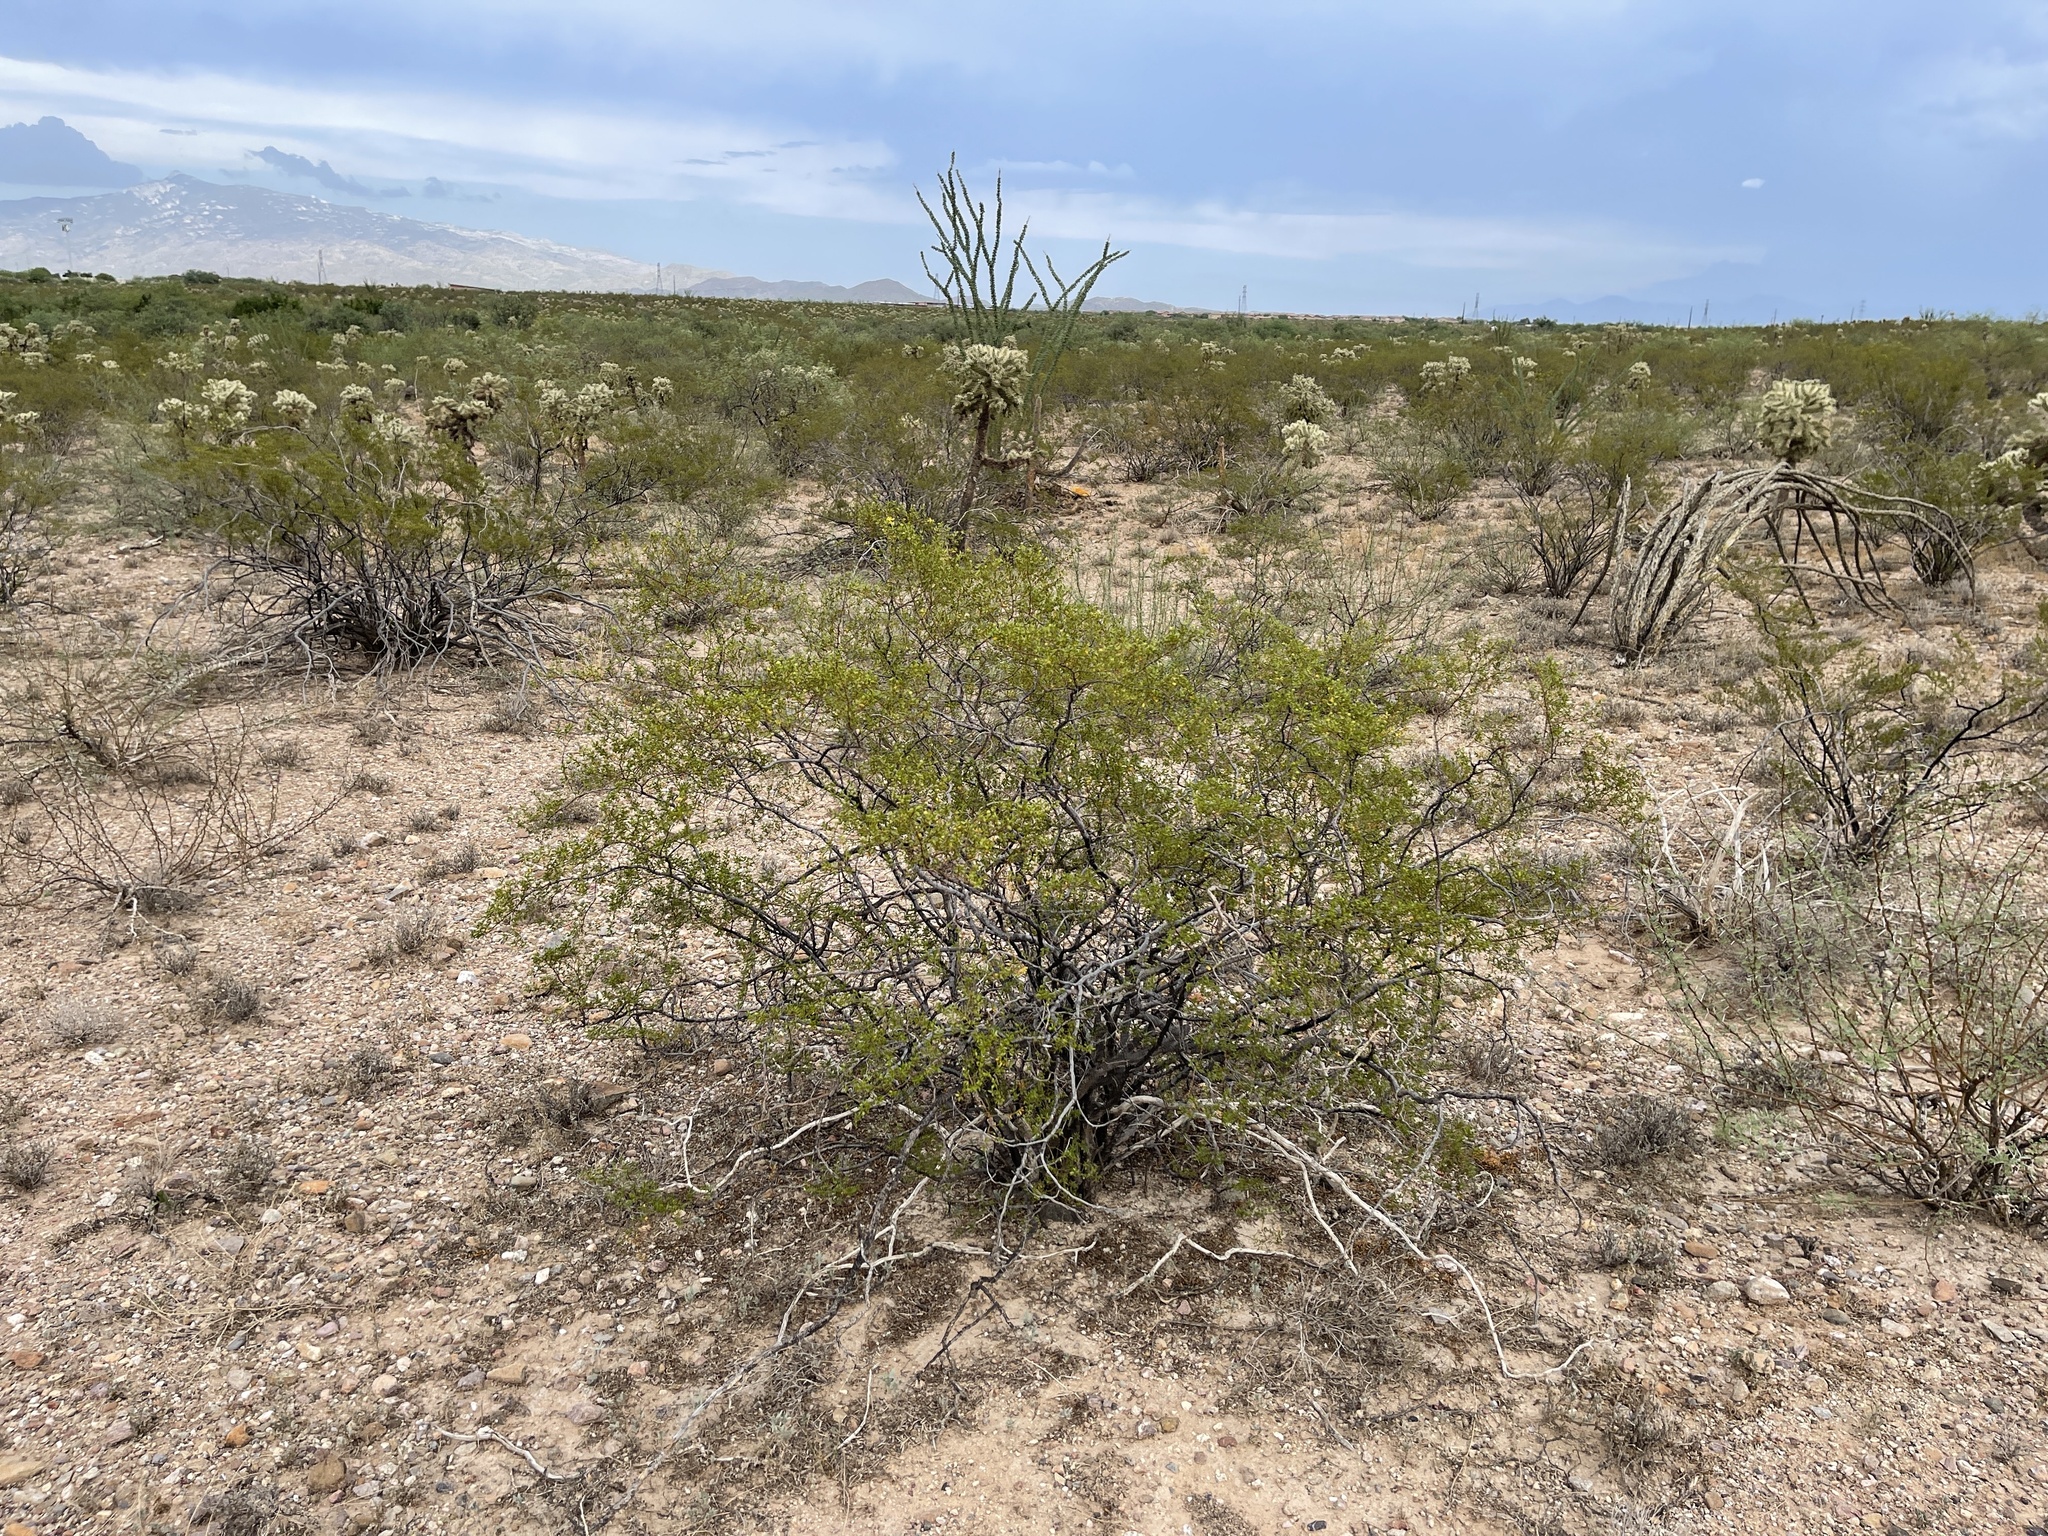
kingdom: Plantae
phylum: Tracheophyta
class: Magnoliopsida
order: Zygophyllales
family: Zygophyllaceae
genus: Larrea
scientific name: Larrea tridentata
